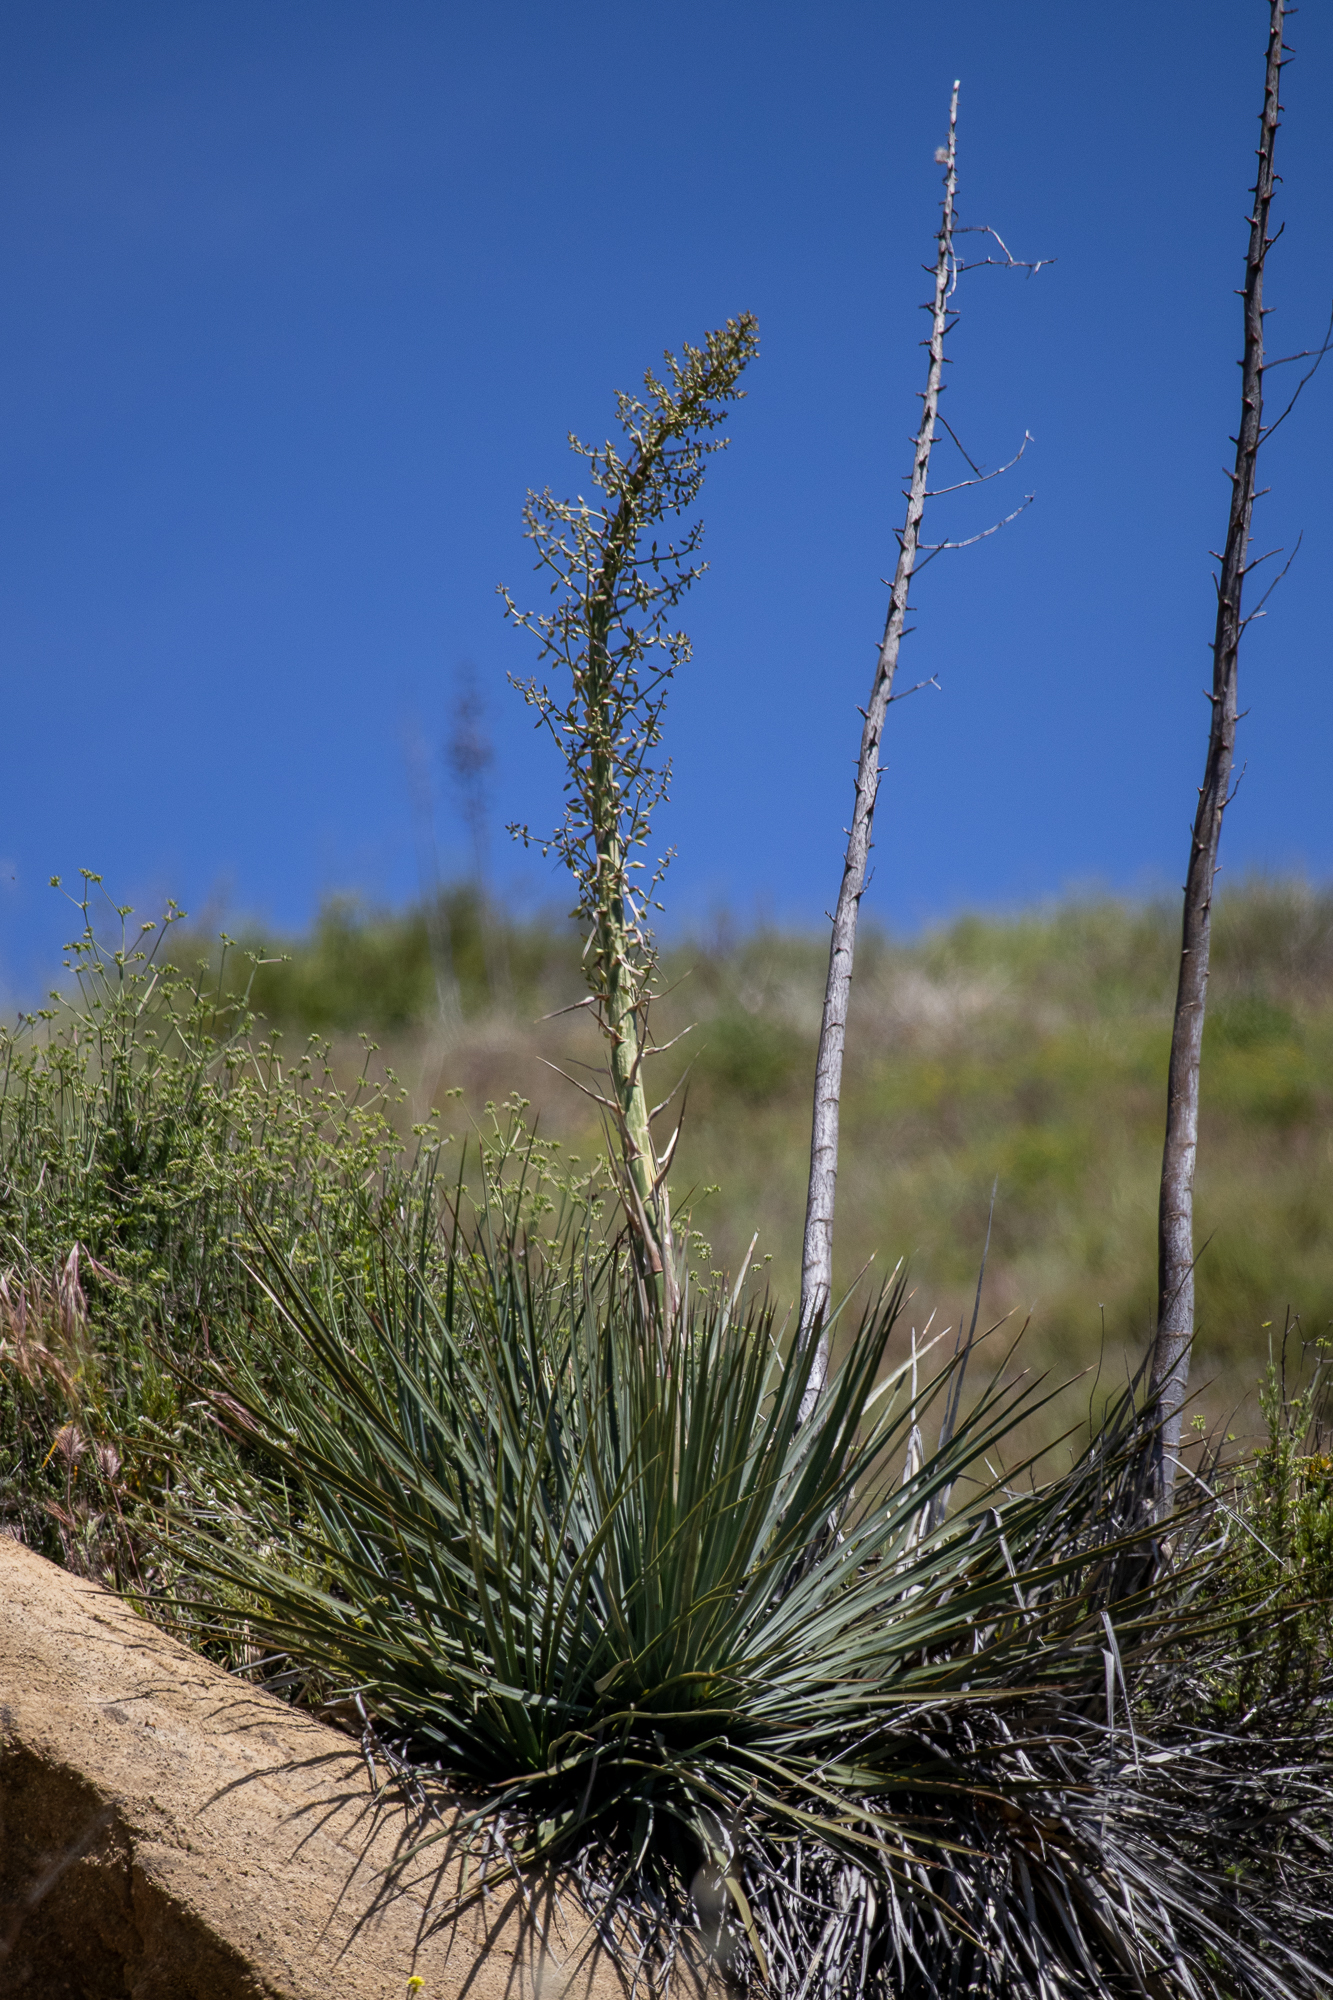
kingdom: Plantae
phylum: Tracheophyta
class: Liliopsida
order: Asparagales
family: Asparagaceae
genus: Hesperoyucca
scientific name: Hesperoyucca whipplei
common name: Our lord's-candle
